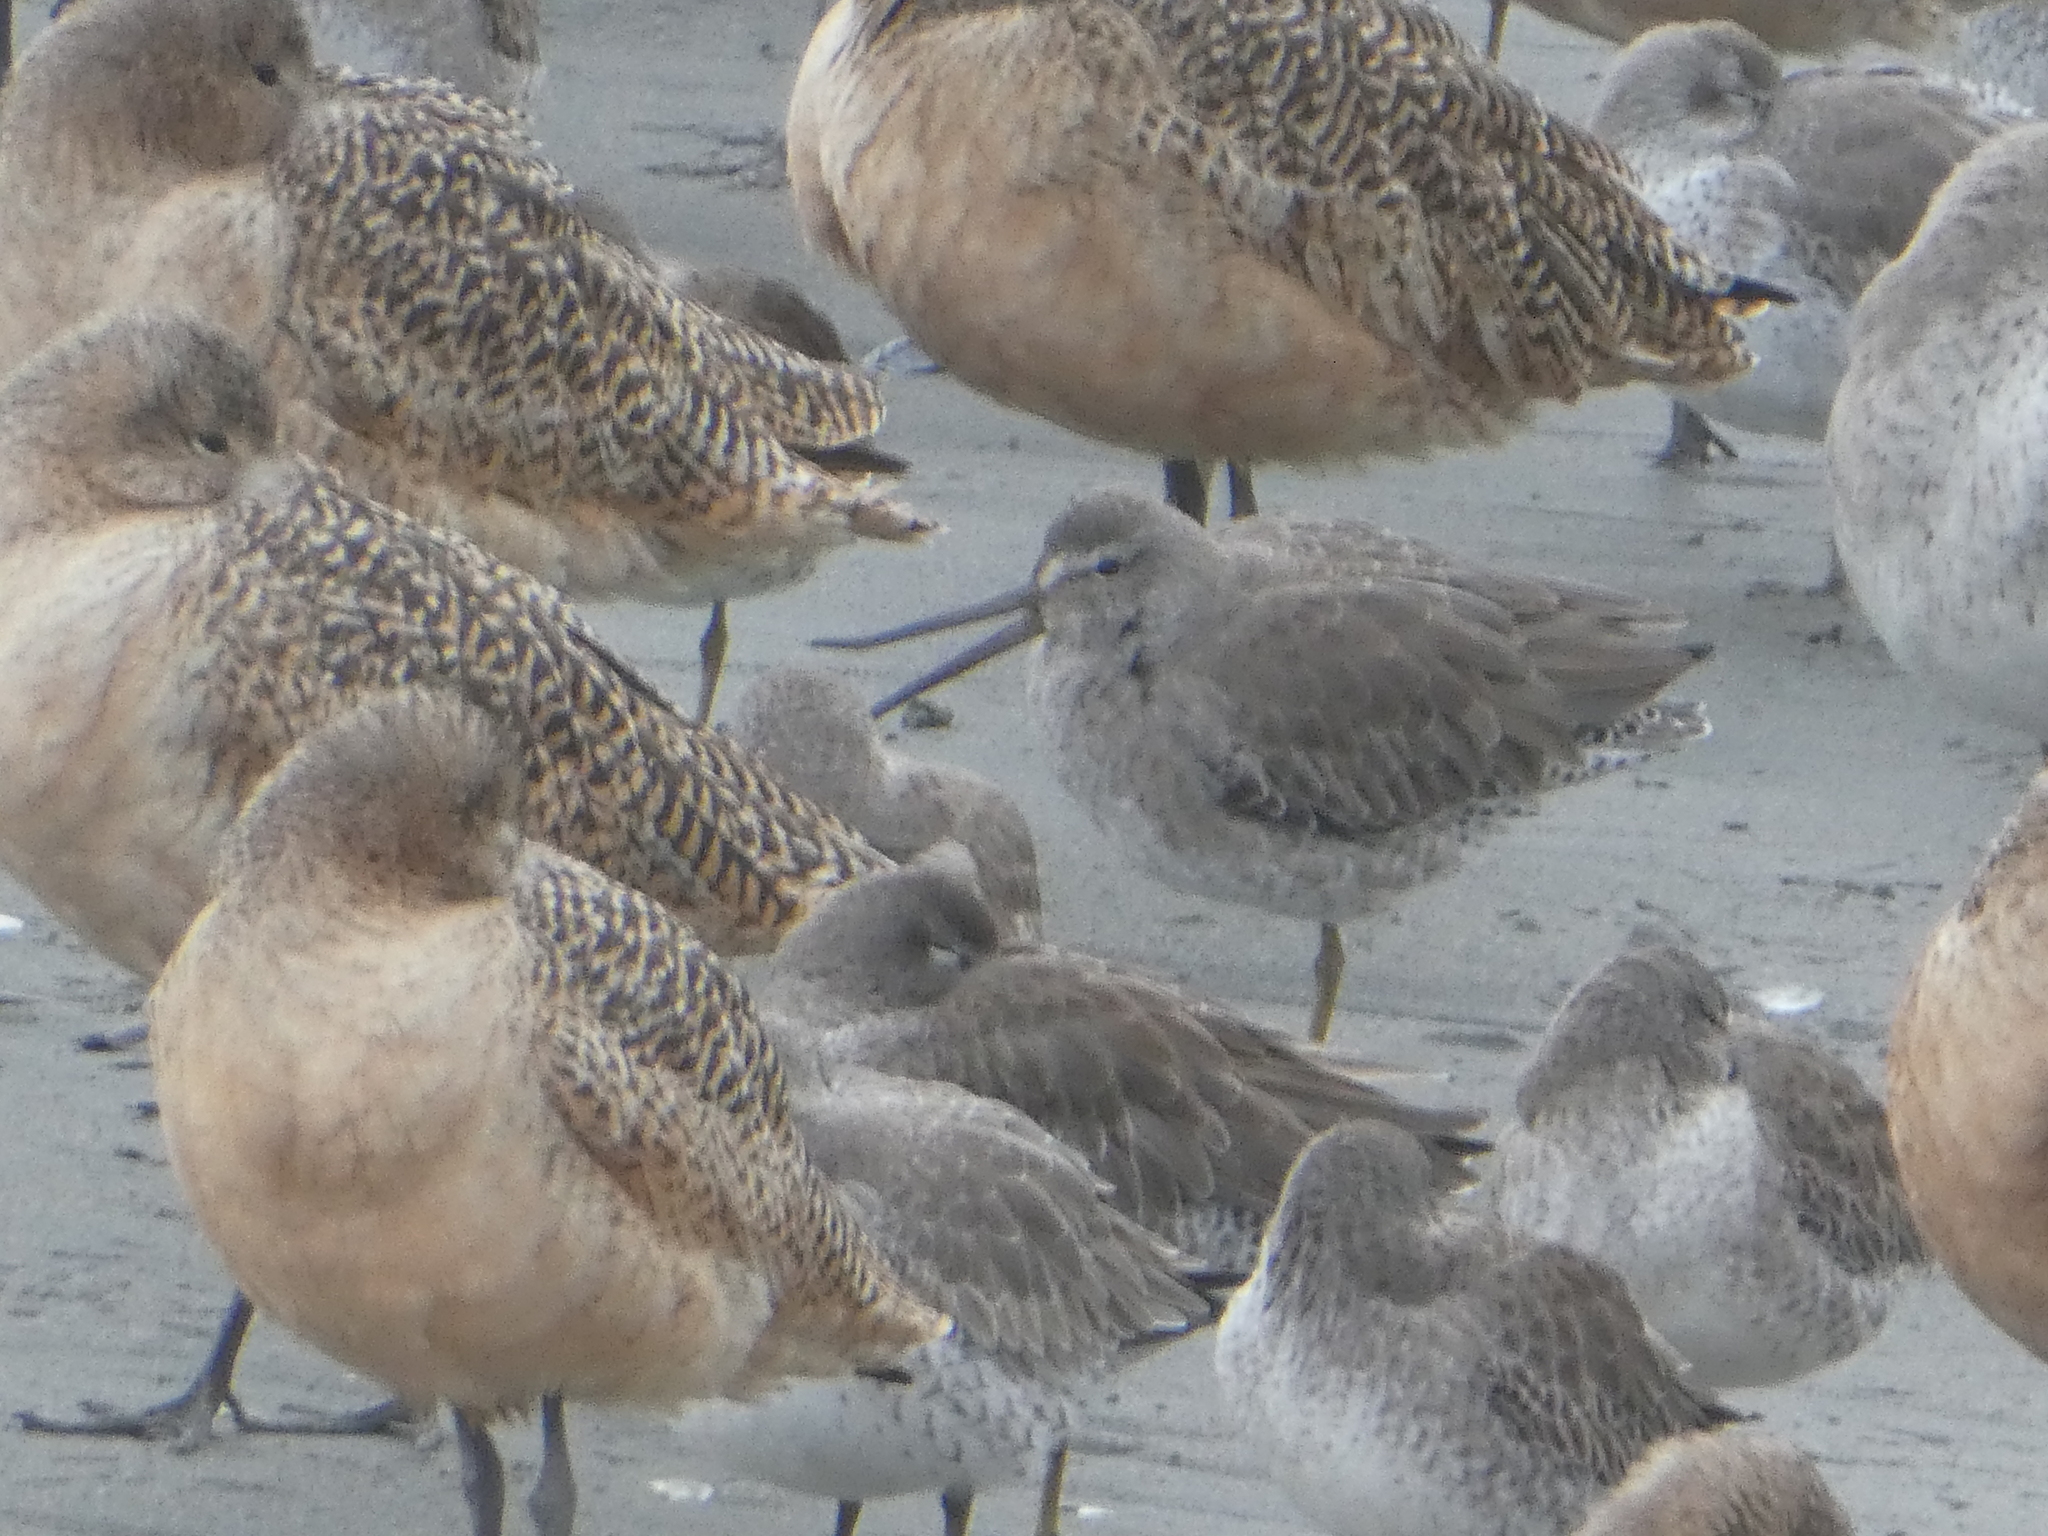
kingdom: Animalia
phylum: Chordata
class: Aves
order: Charadriiformes
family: Scolopacidae
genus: Limnodromus
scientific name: Limnodromus griseus
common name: Short-billed dowitcher
